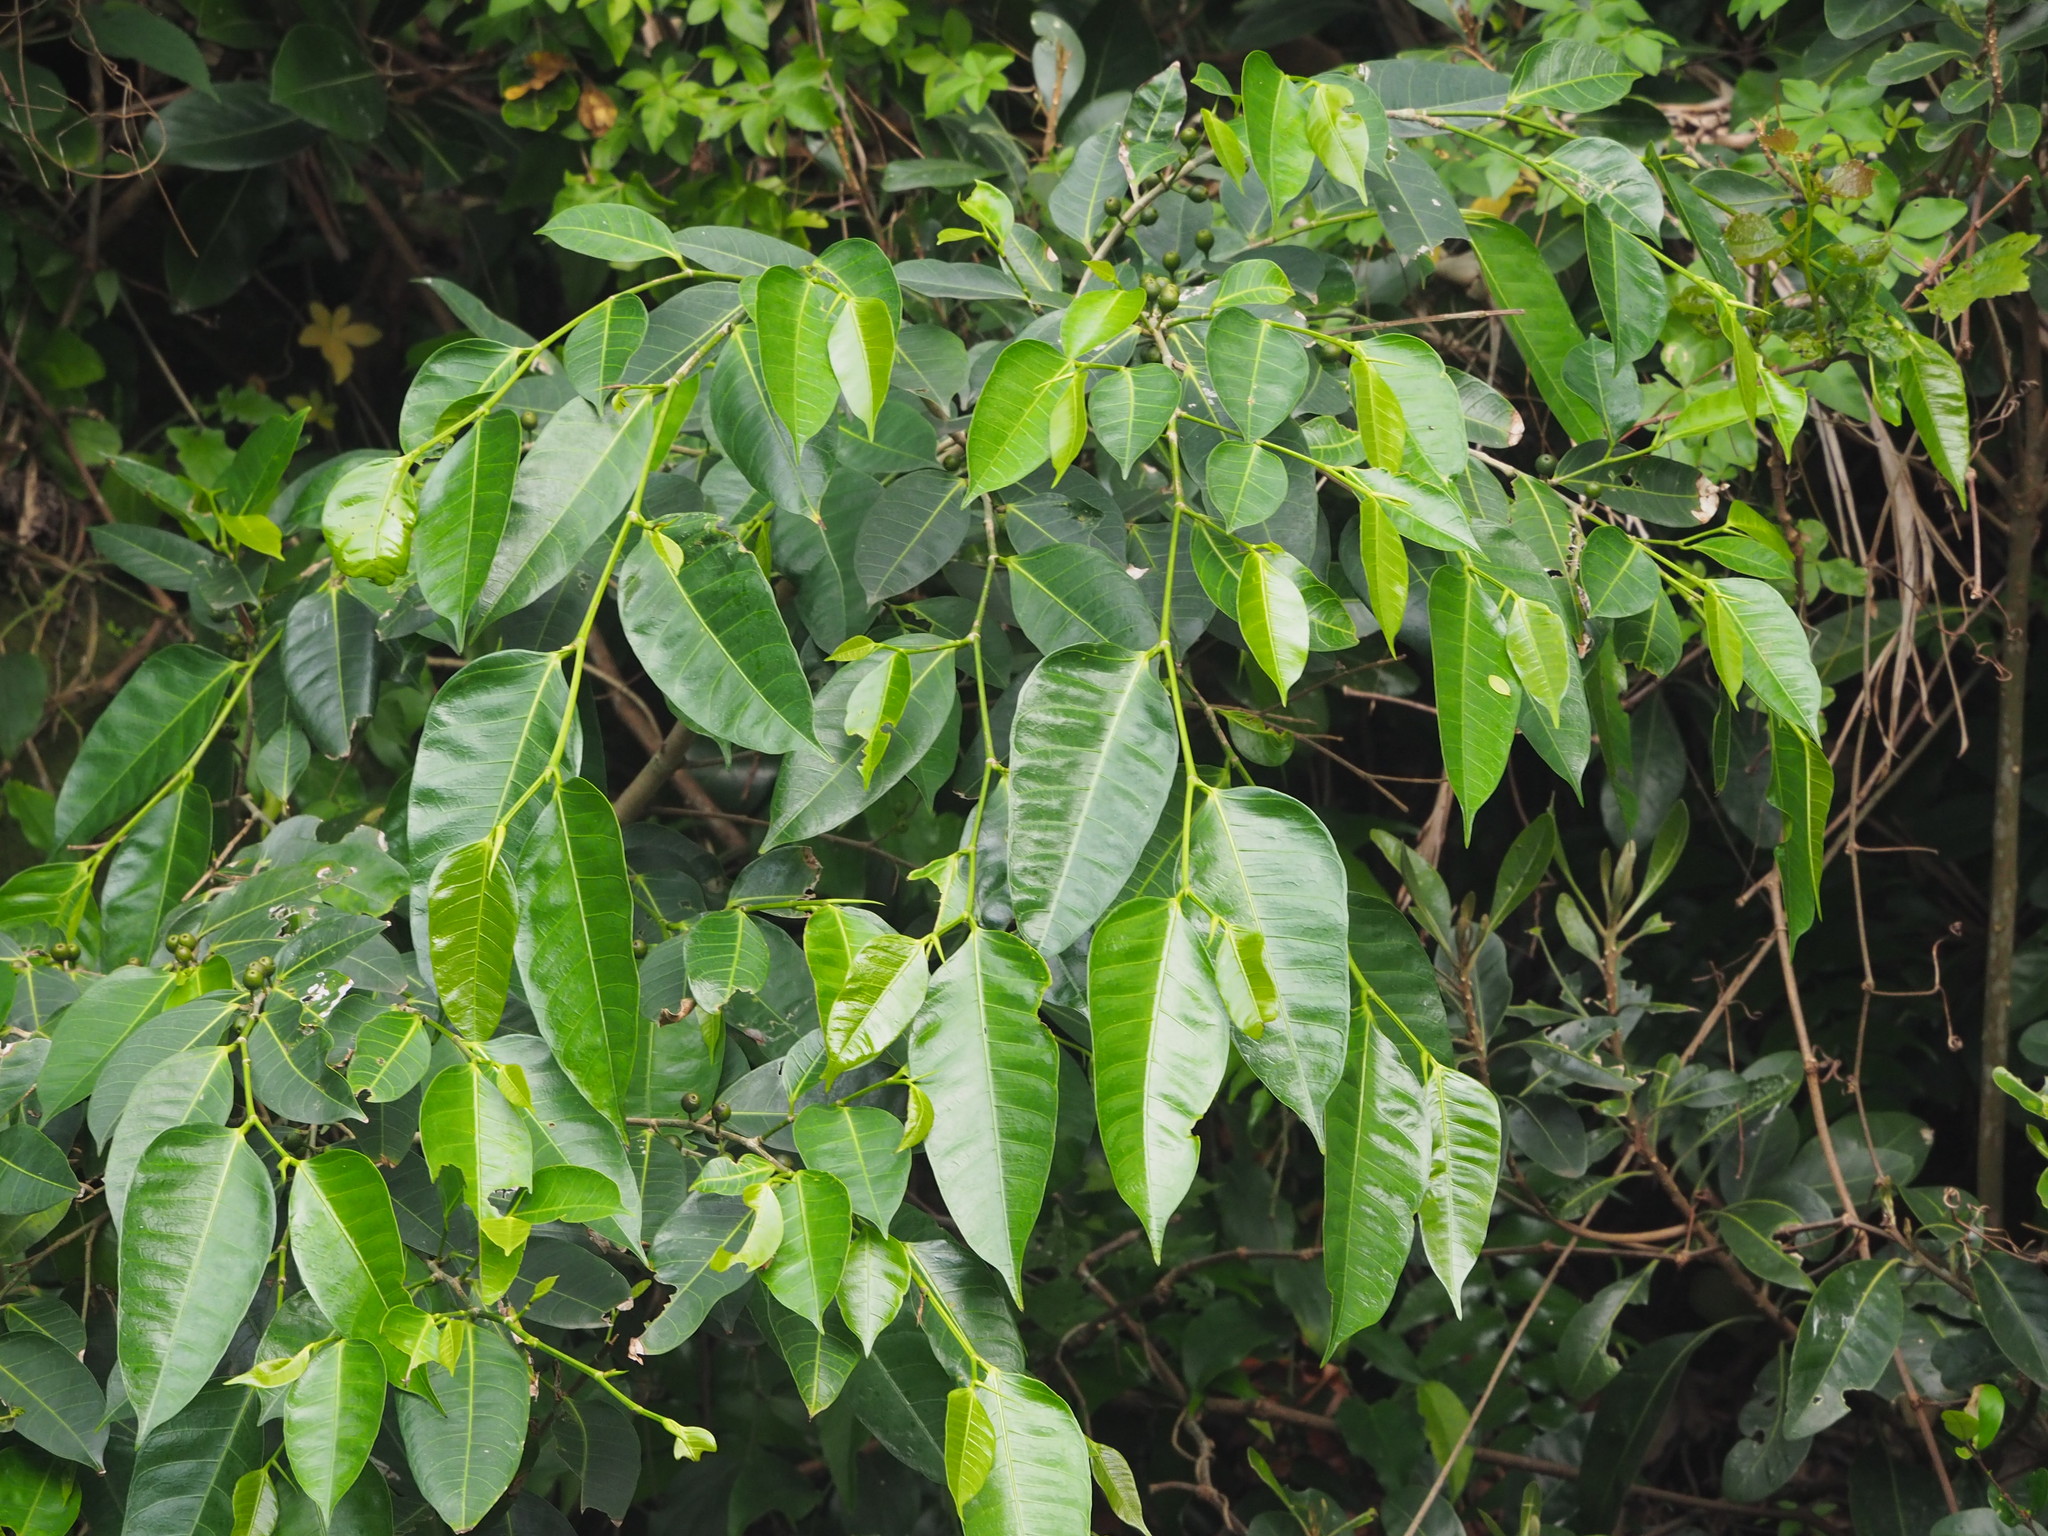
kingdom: Plantae
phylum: Tracheophyta
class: Magnoliopsida
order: Rosales
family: Moraceae
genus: Ficus
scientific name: Ficus virgata
